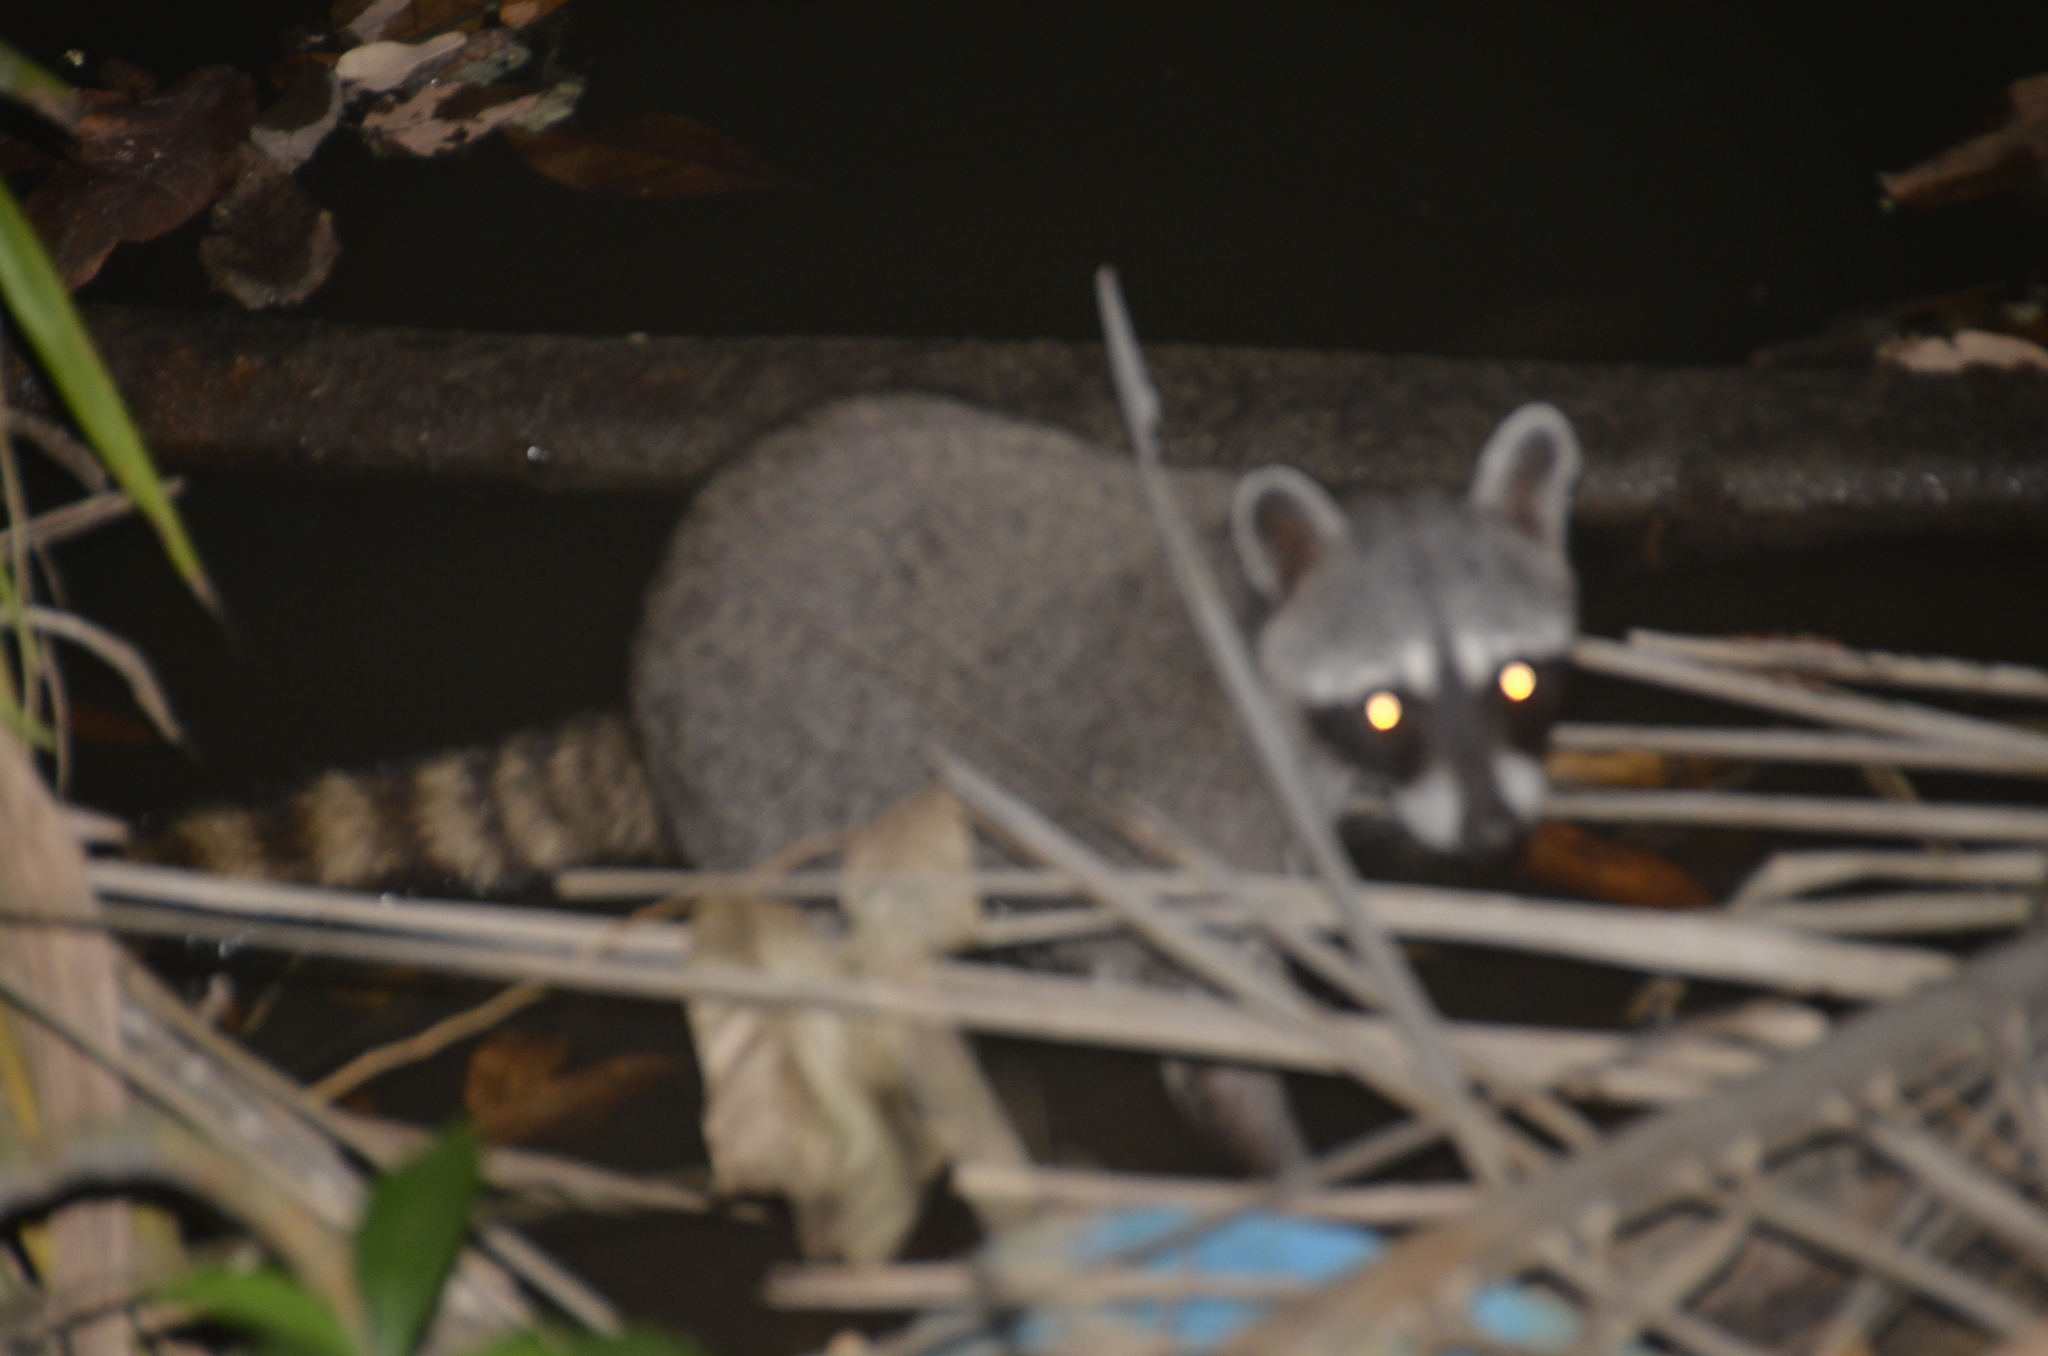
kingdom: Animalia
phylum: Chordata
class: Mammalia
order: Carnivora
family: Procyonidae
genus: Procyon
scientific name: Procyon lotor
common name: Raccoon
